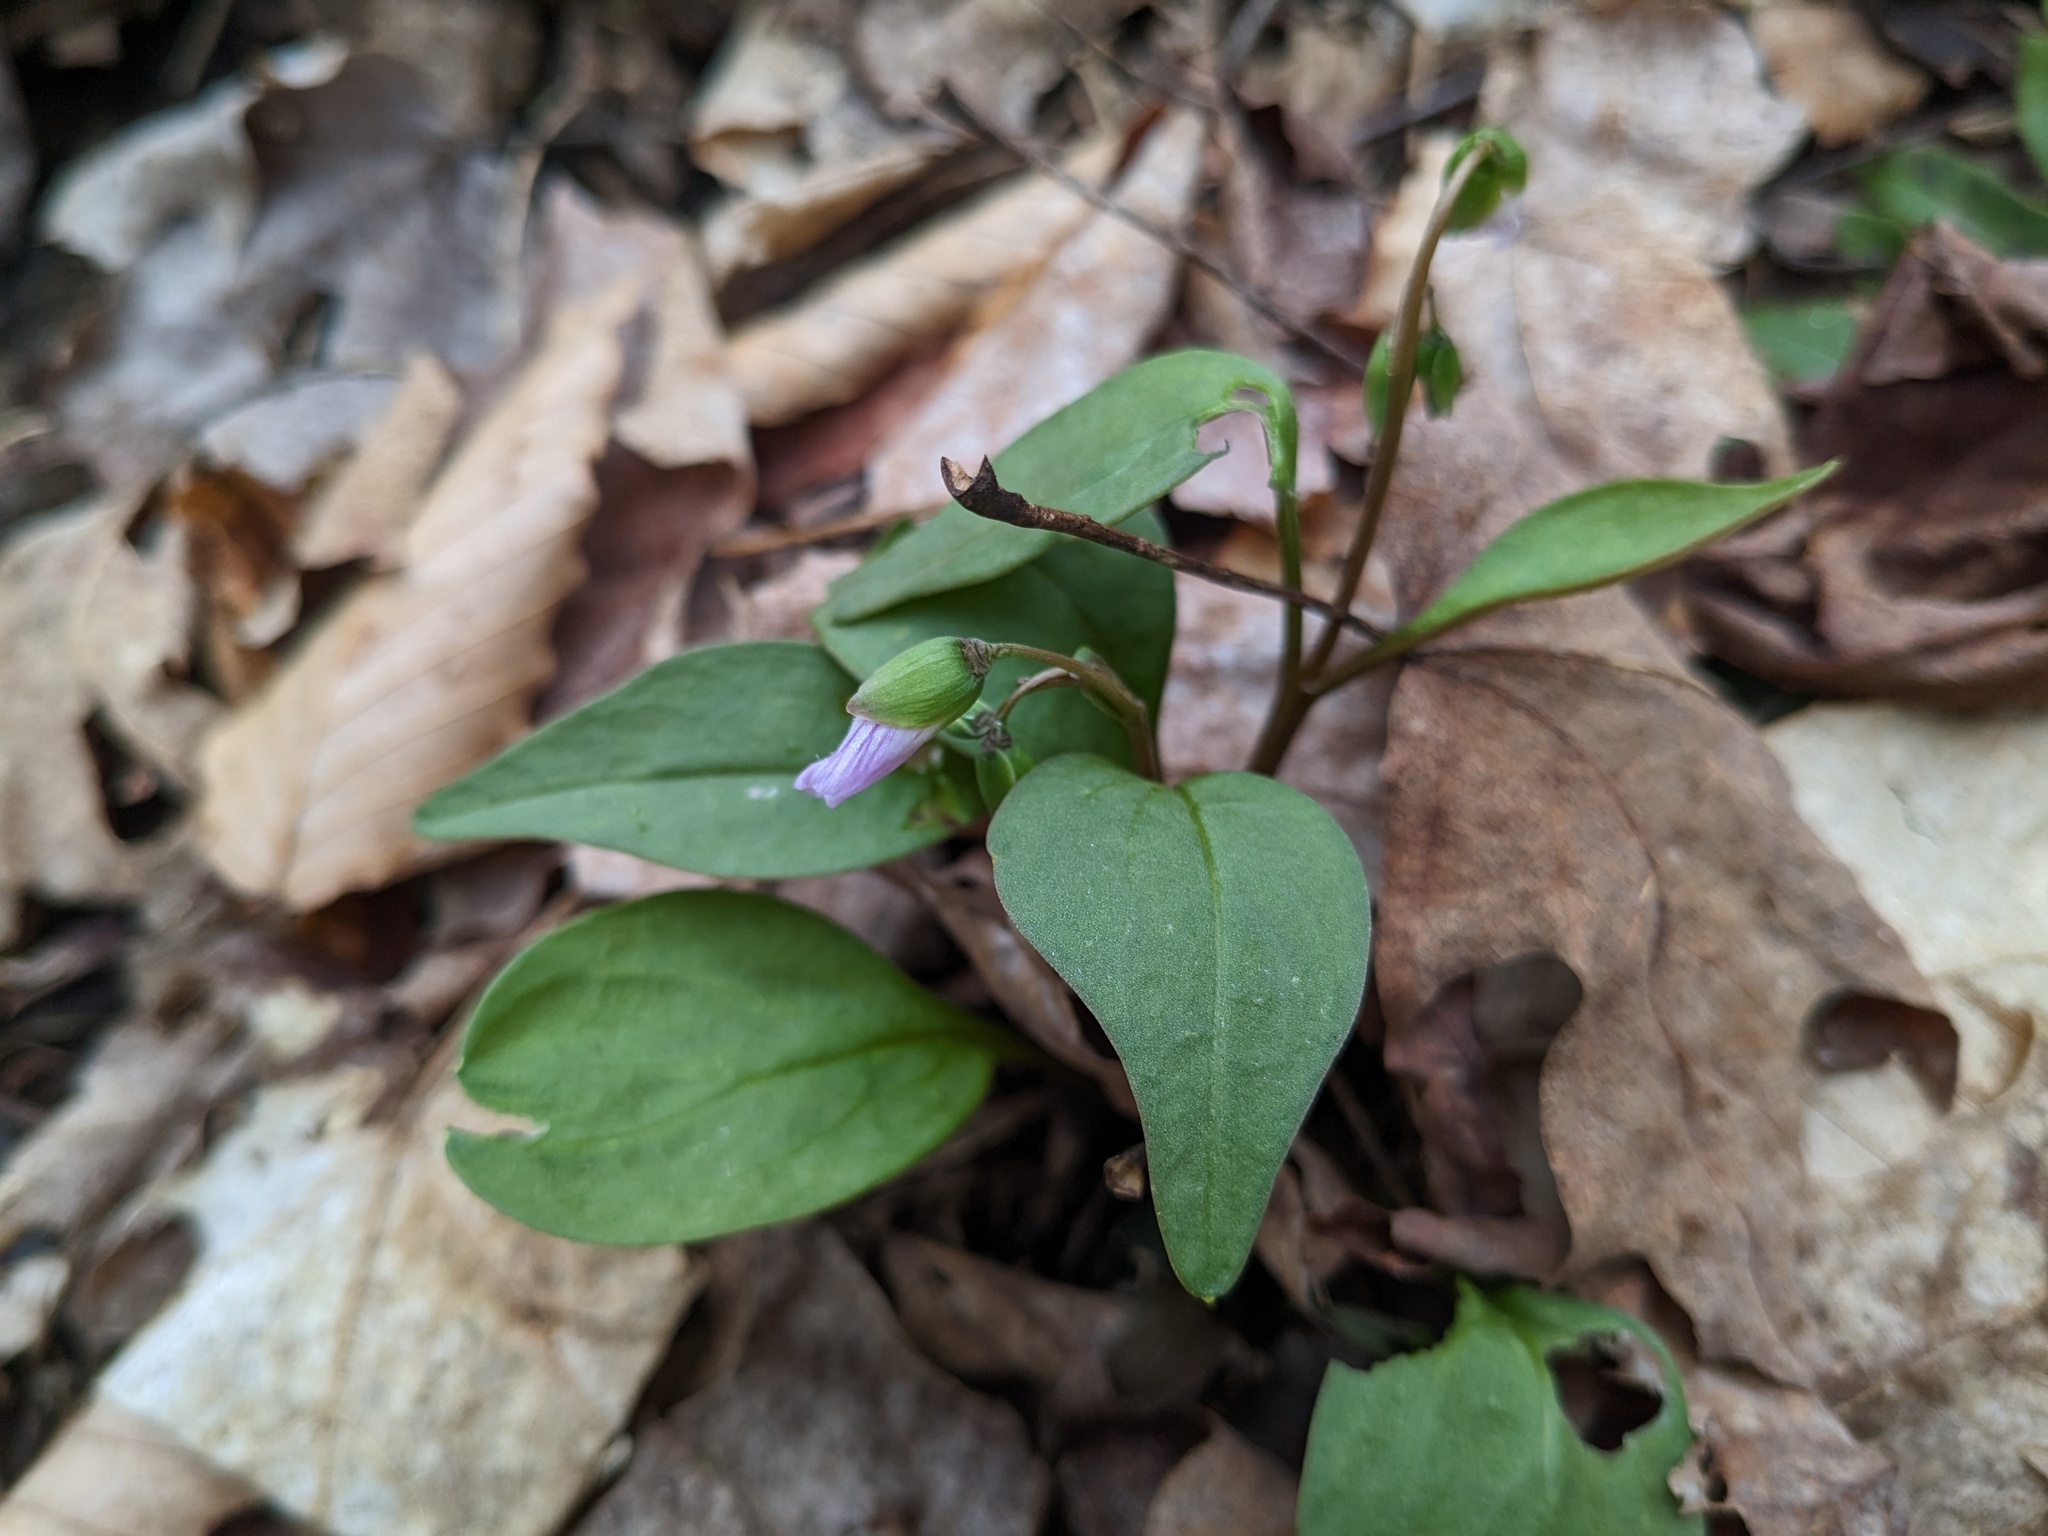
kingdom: Plantae
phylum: Tracheophyta
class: Magnoliopsida
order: Caryophyllales
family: Montiaceae
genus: Claytonia
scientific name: Claytonia caroliniana
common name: Carolina spring beauty
